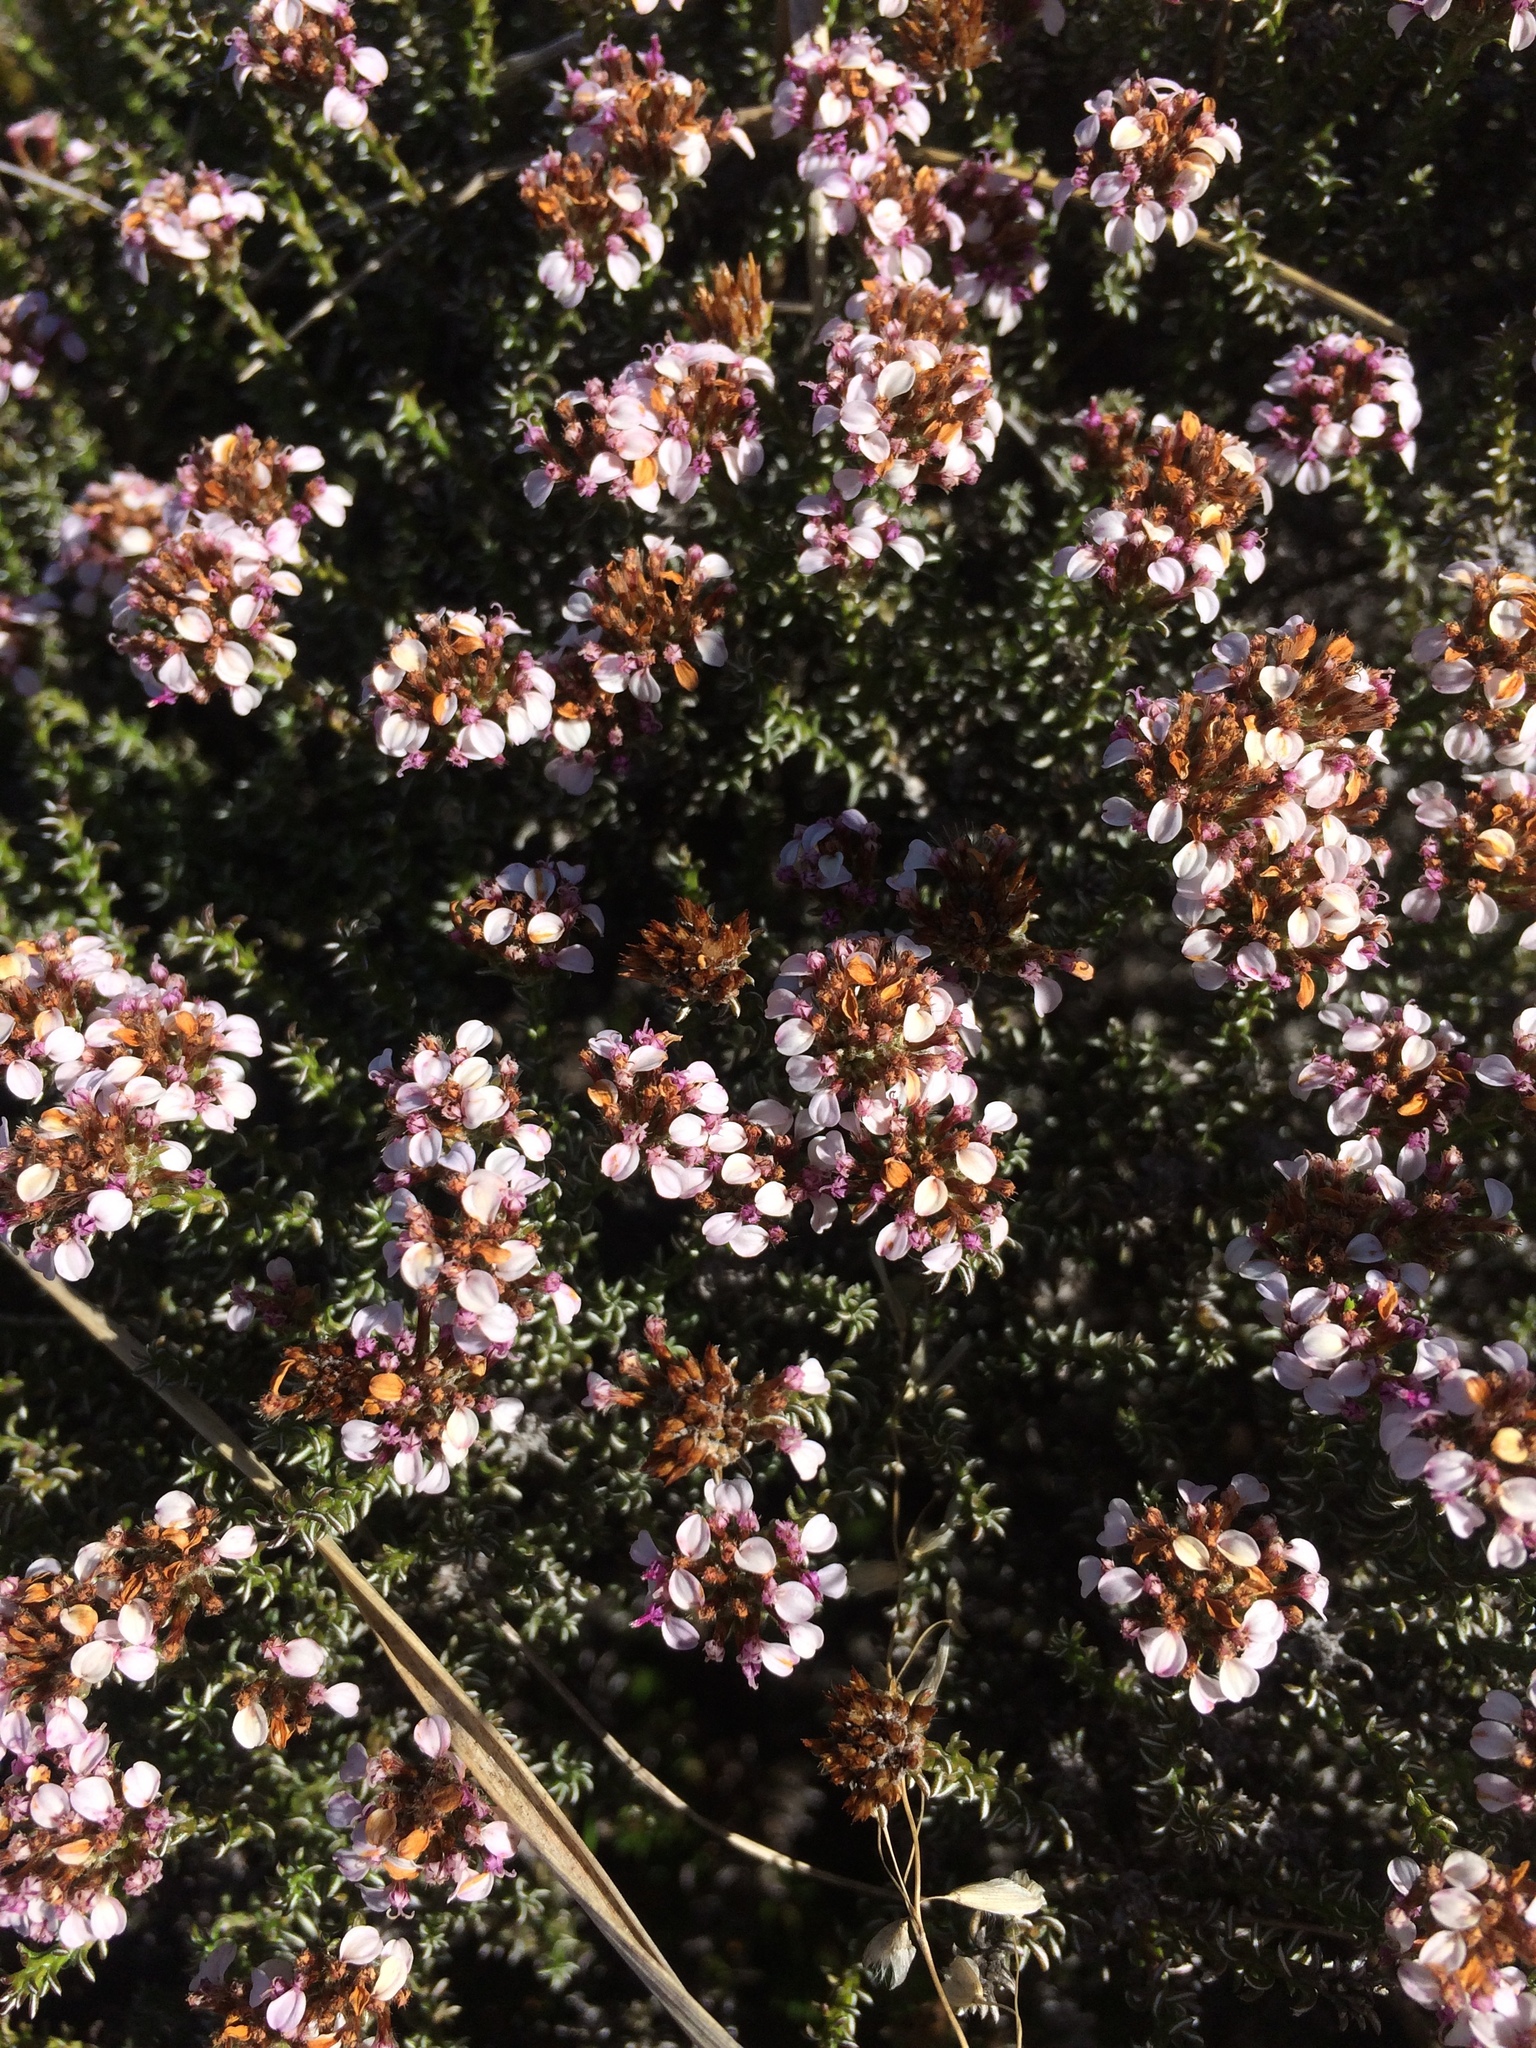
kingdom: Plantae
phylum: Tracheophyta
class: Magnoliopsida
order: Asterales
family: Asteraceae
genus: Disparago
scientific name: Disparago ericoides
